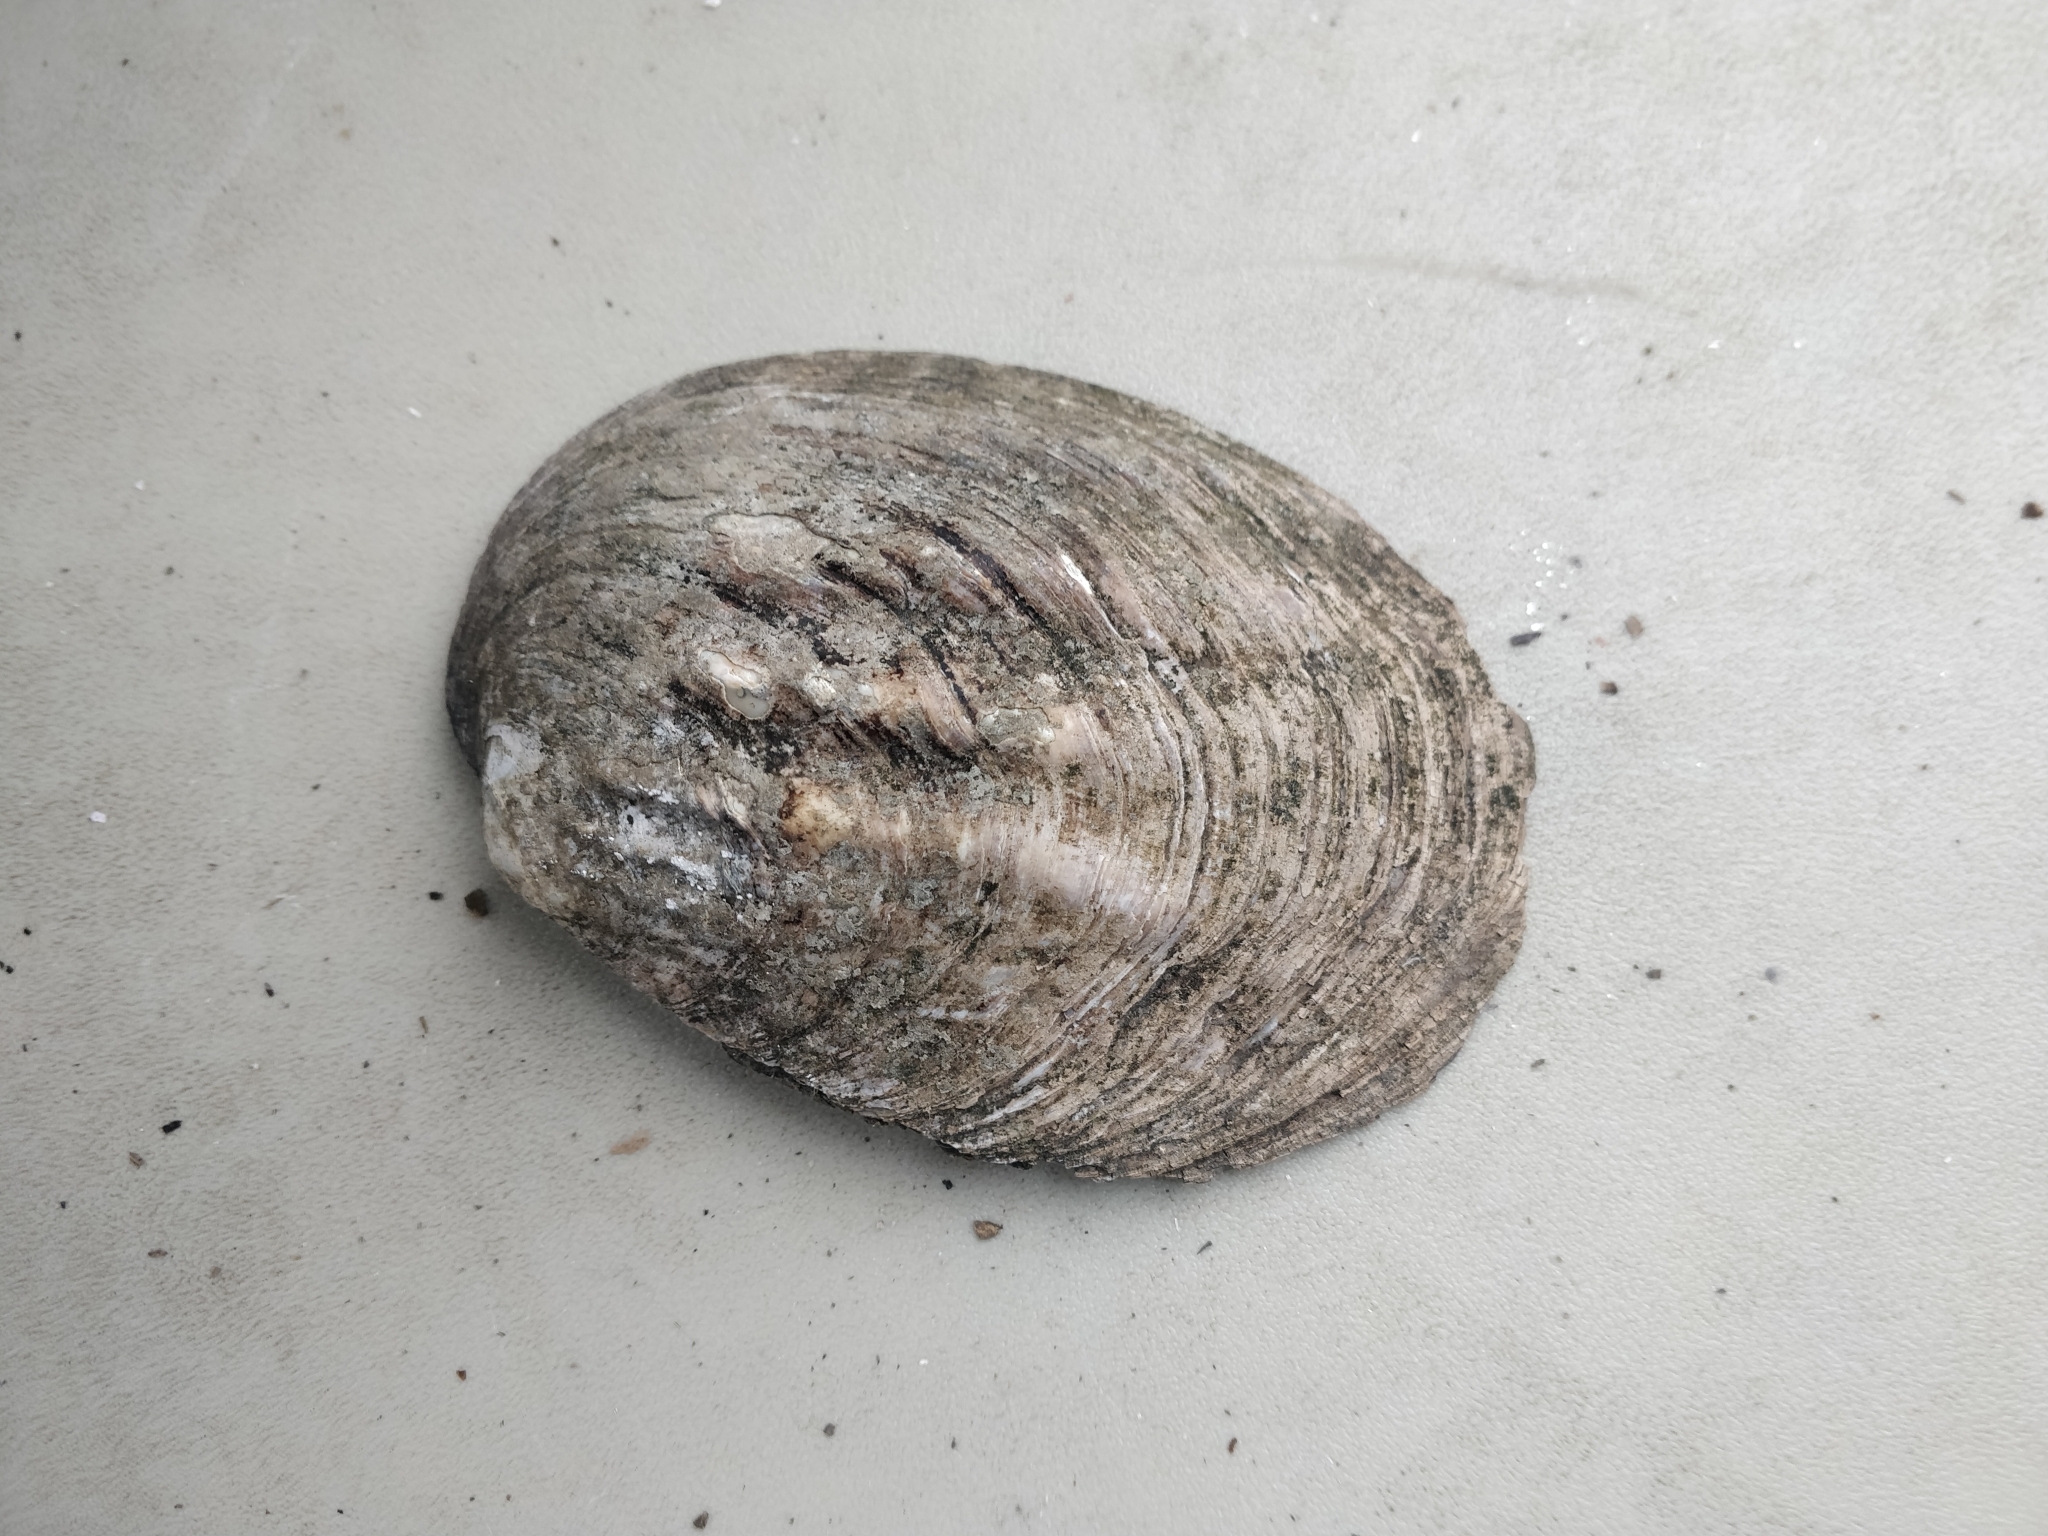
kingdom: Animalia
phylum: Mollusca
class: Bivalvia
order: Unionida
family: Unionidae
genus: Amblema
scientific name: Amblema plicata
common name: Threeridge
